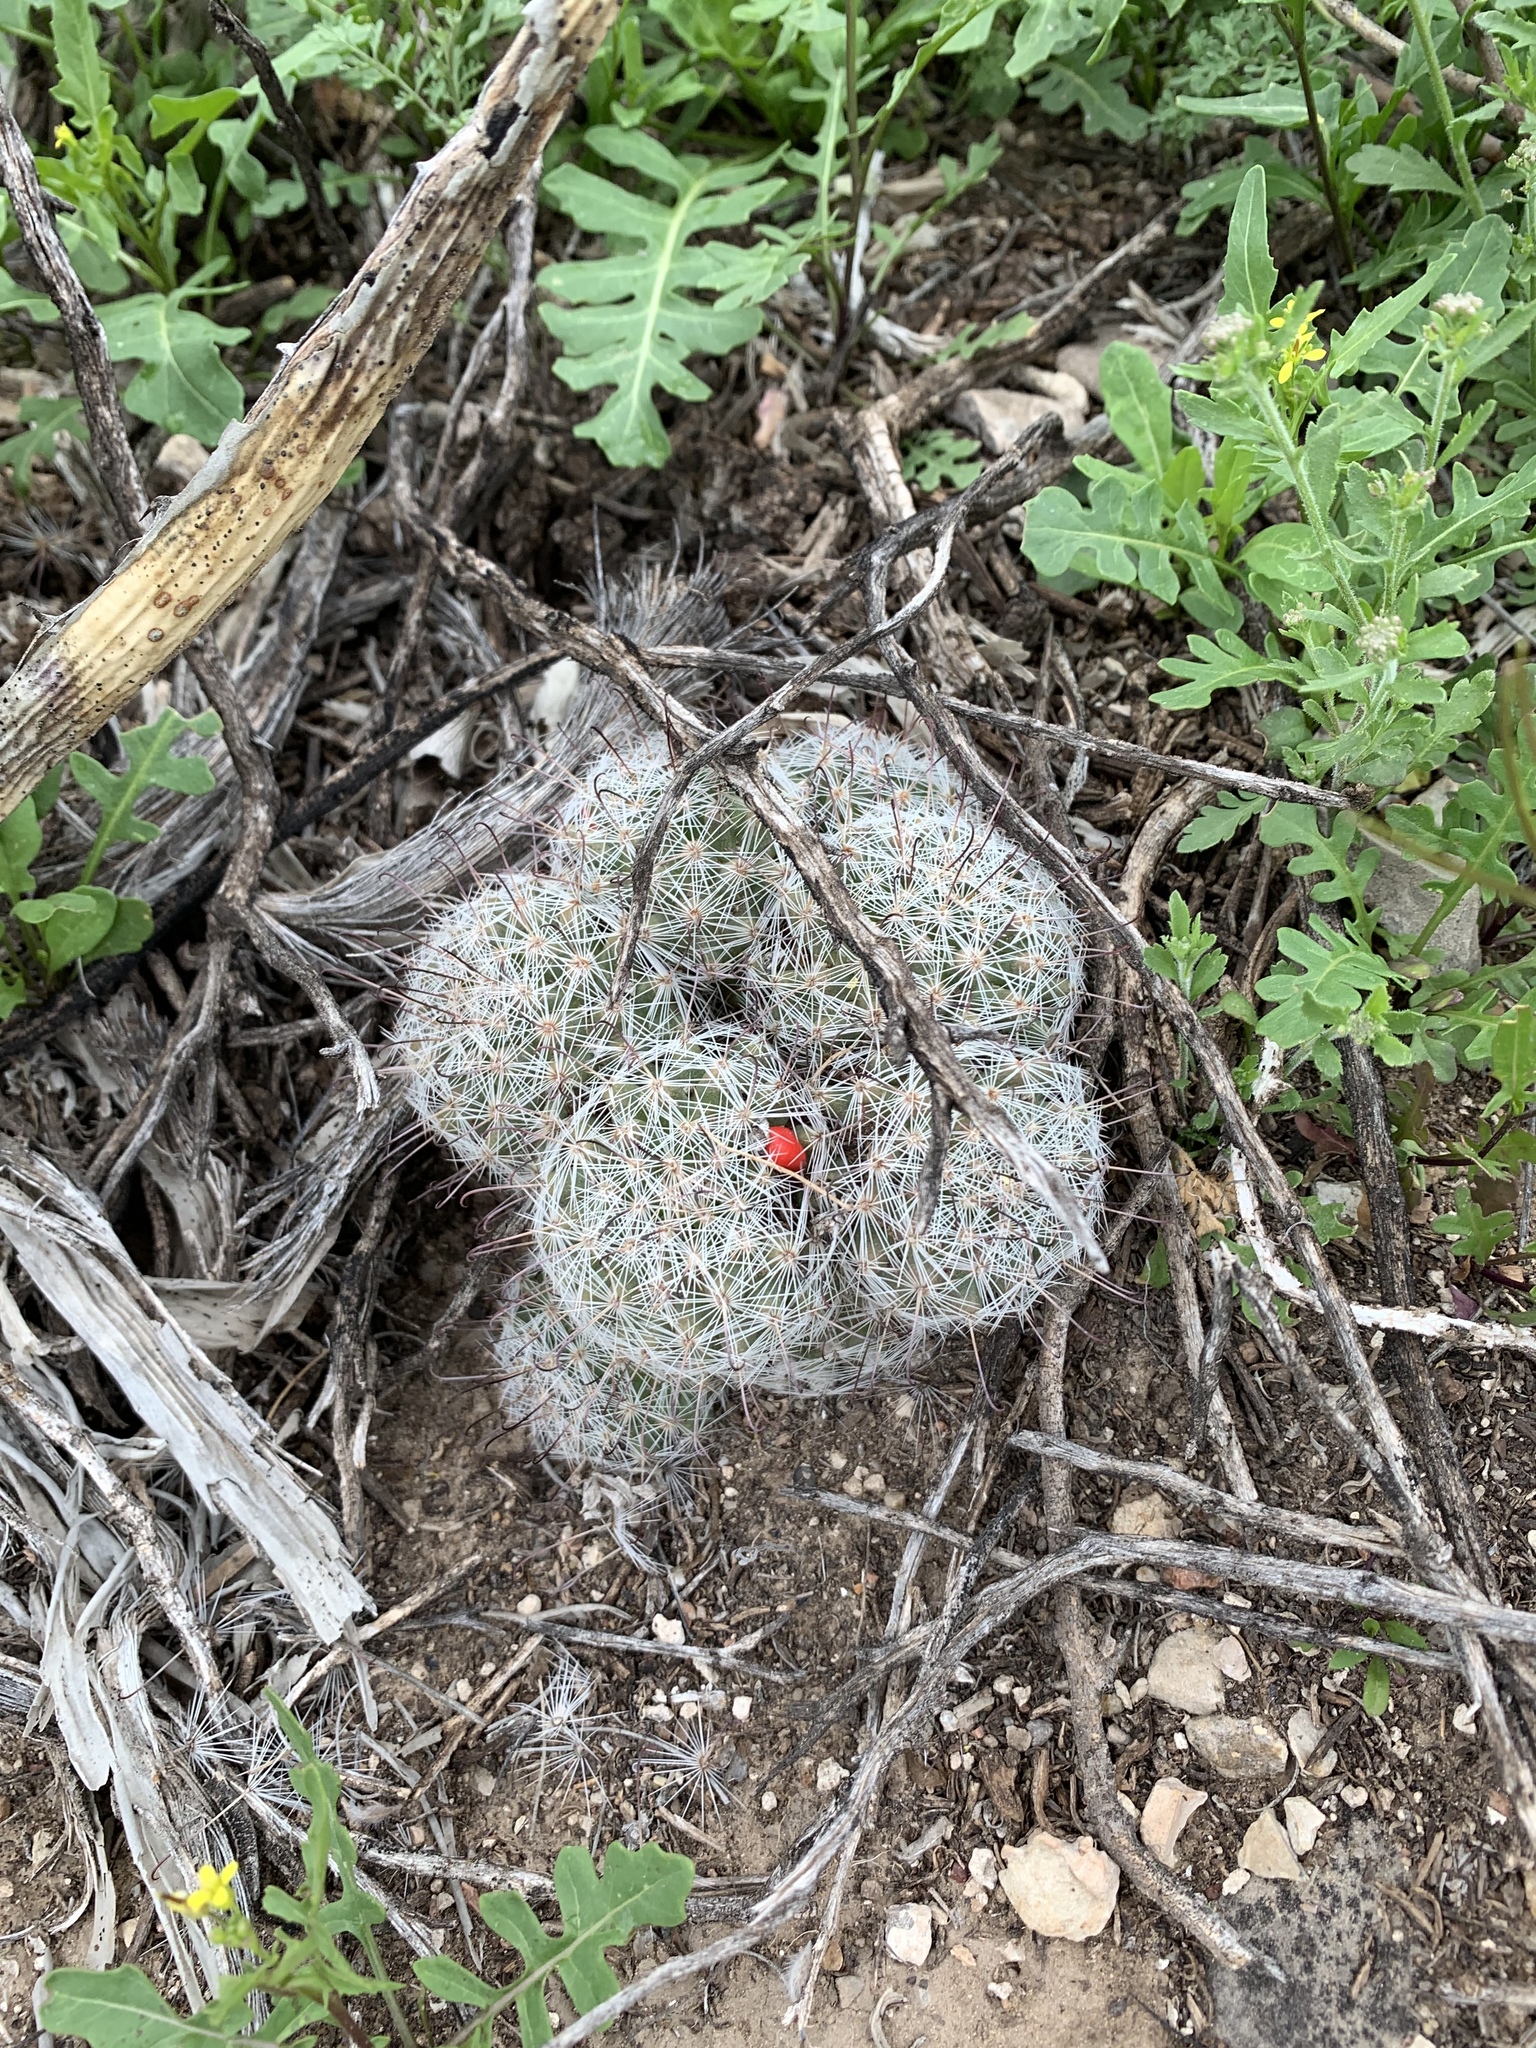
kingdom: Plantae
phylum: Tracheophyta
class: Magnoliopsida
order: Caryophyllales
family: Cactaceae
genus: Cochemiea
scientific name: Cochemiea grahamii
